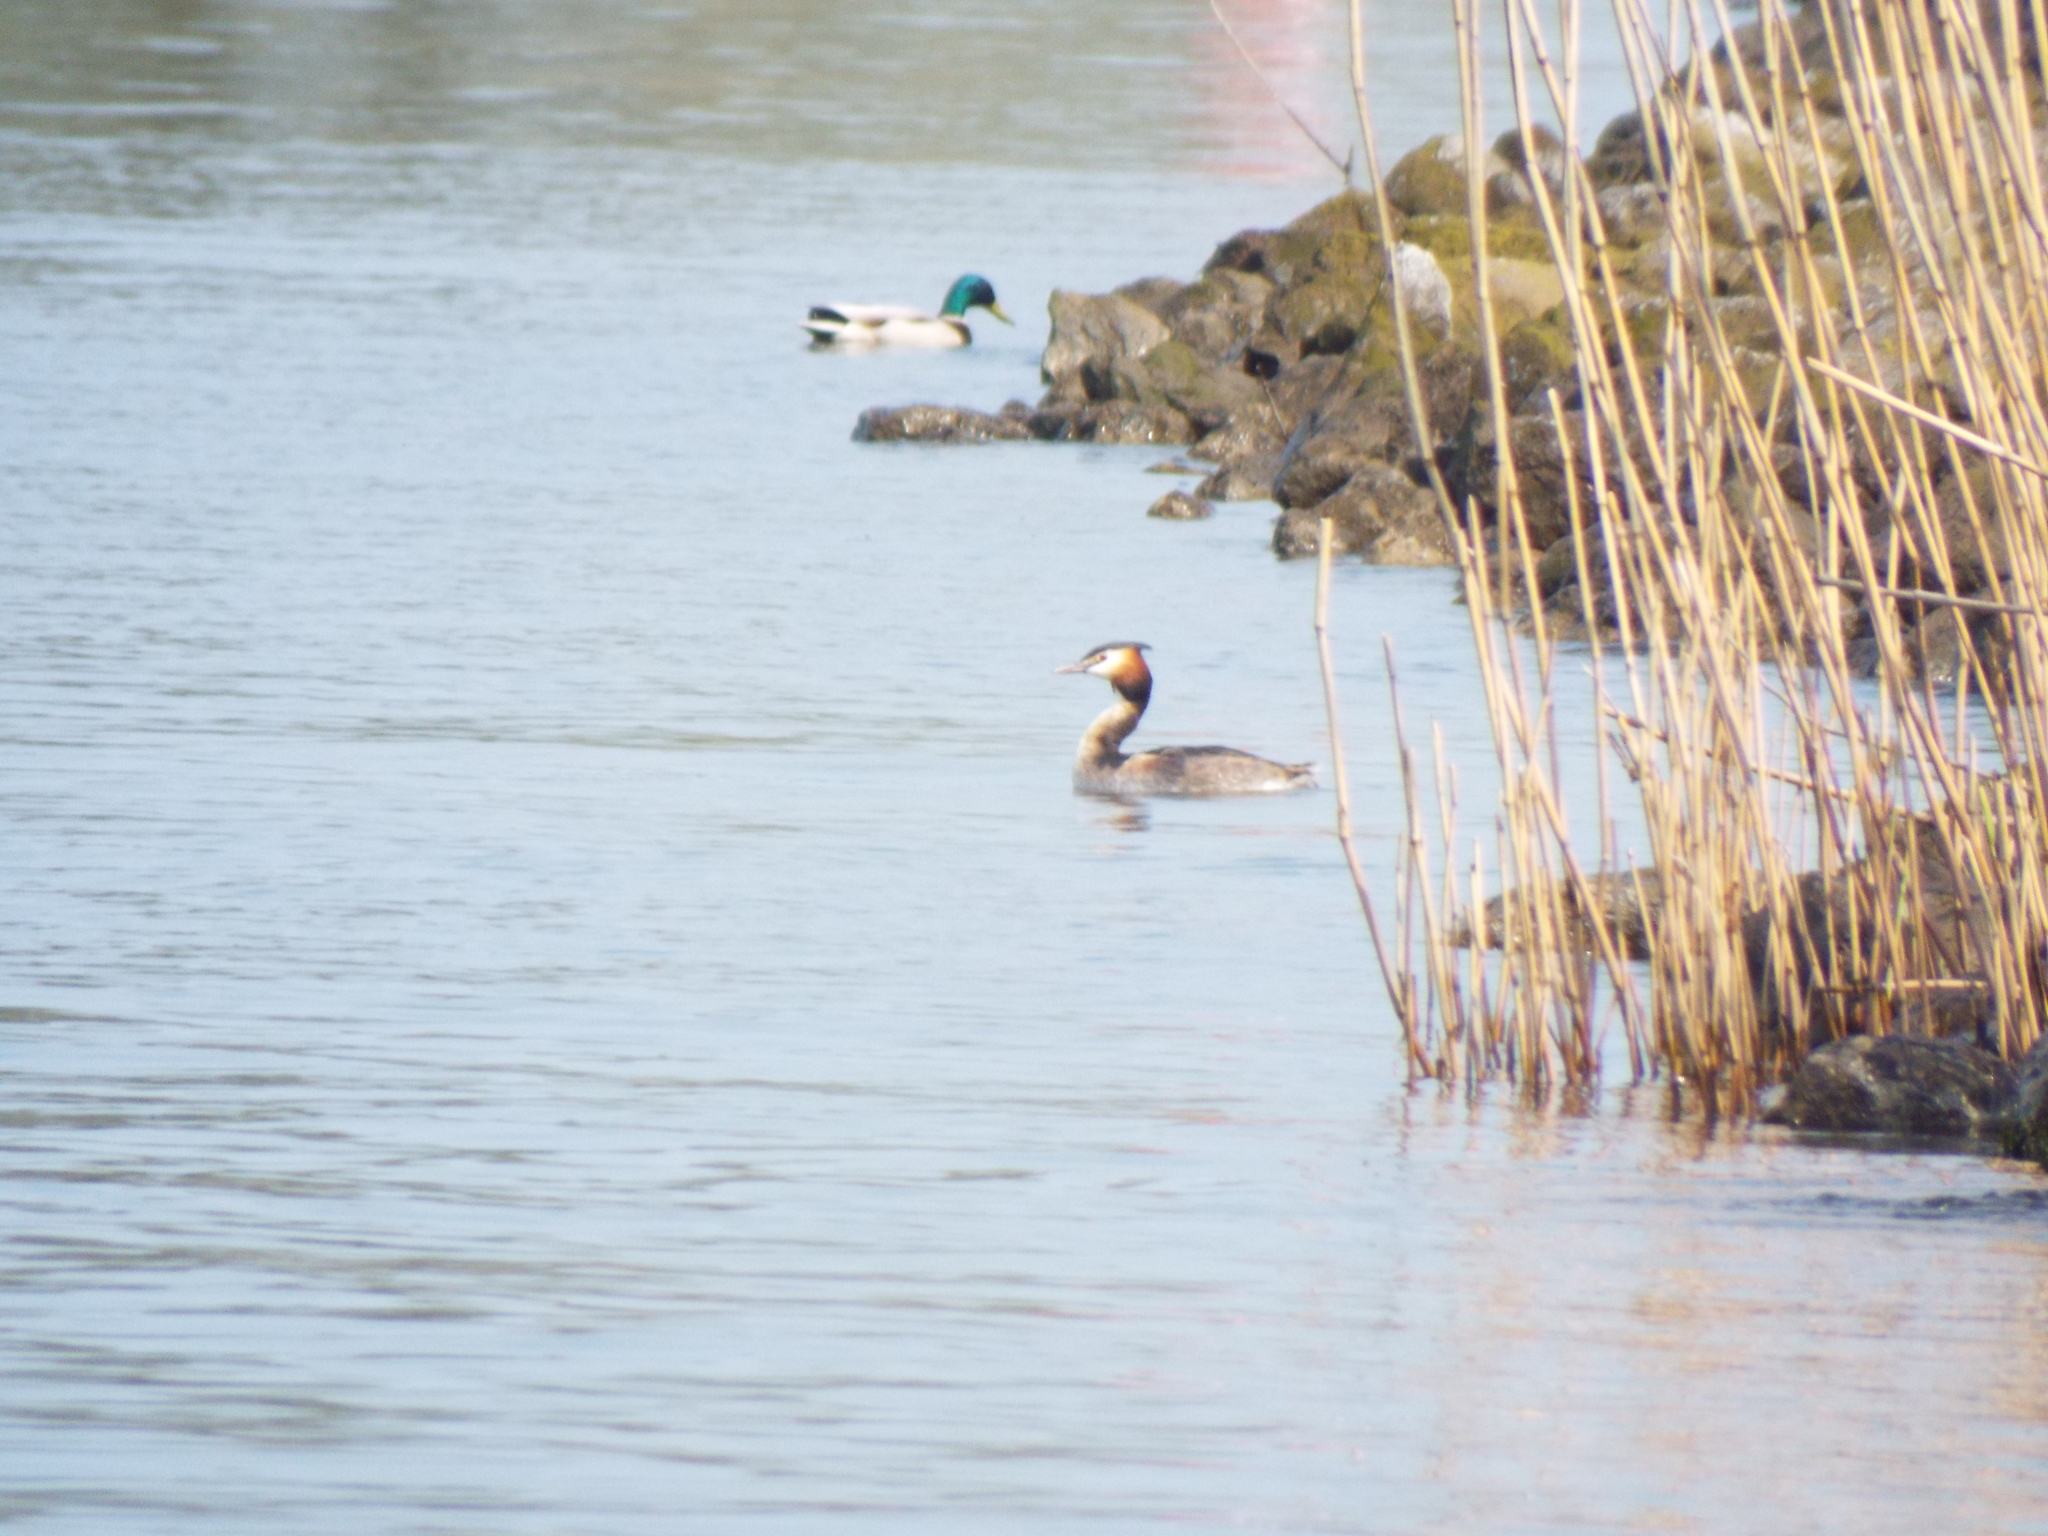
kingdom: Animalia
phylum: Chordata
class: Aves
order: Podicipediformes
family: Podicipedidae
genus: Podiceps
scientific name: Podiceps cristatus
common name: Great crested grebe
